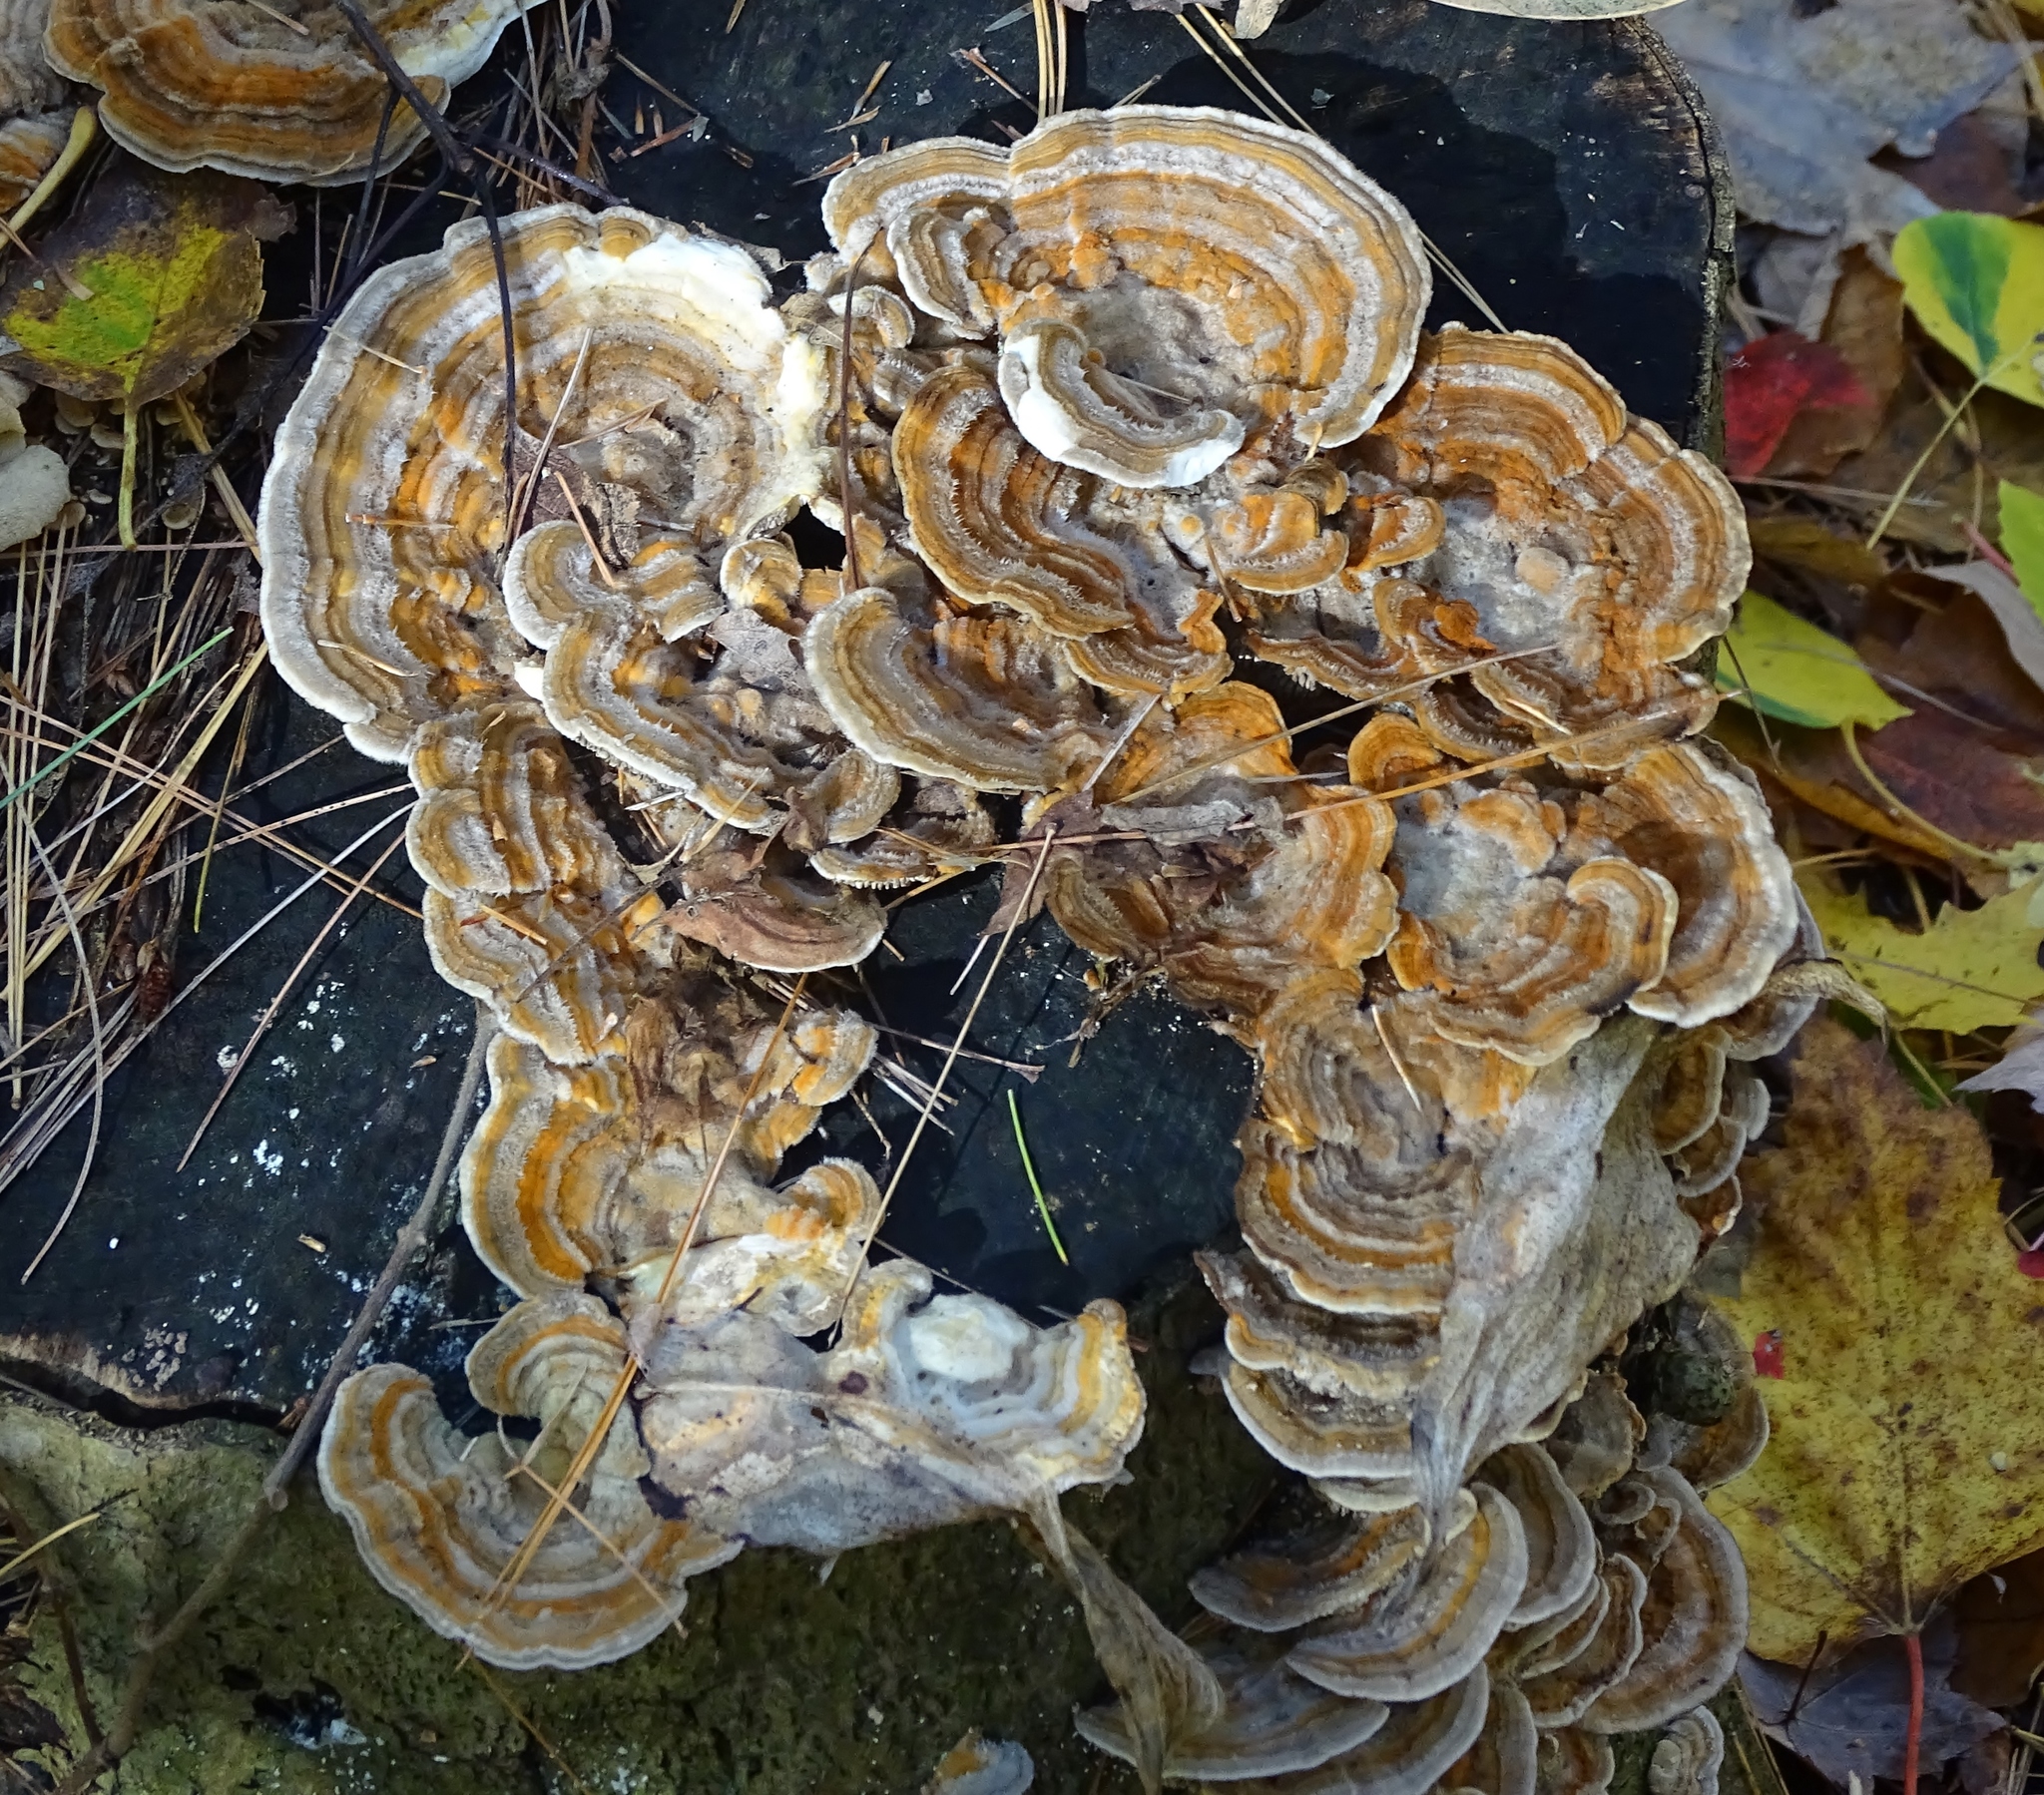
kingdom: Fungi
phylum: Basidiomycota
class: Agaricomycetes
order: Polyporales
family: Polyporaceae
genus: Trametes
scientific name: Trametes versicolor
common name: Turkeytail
